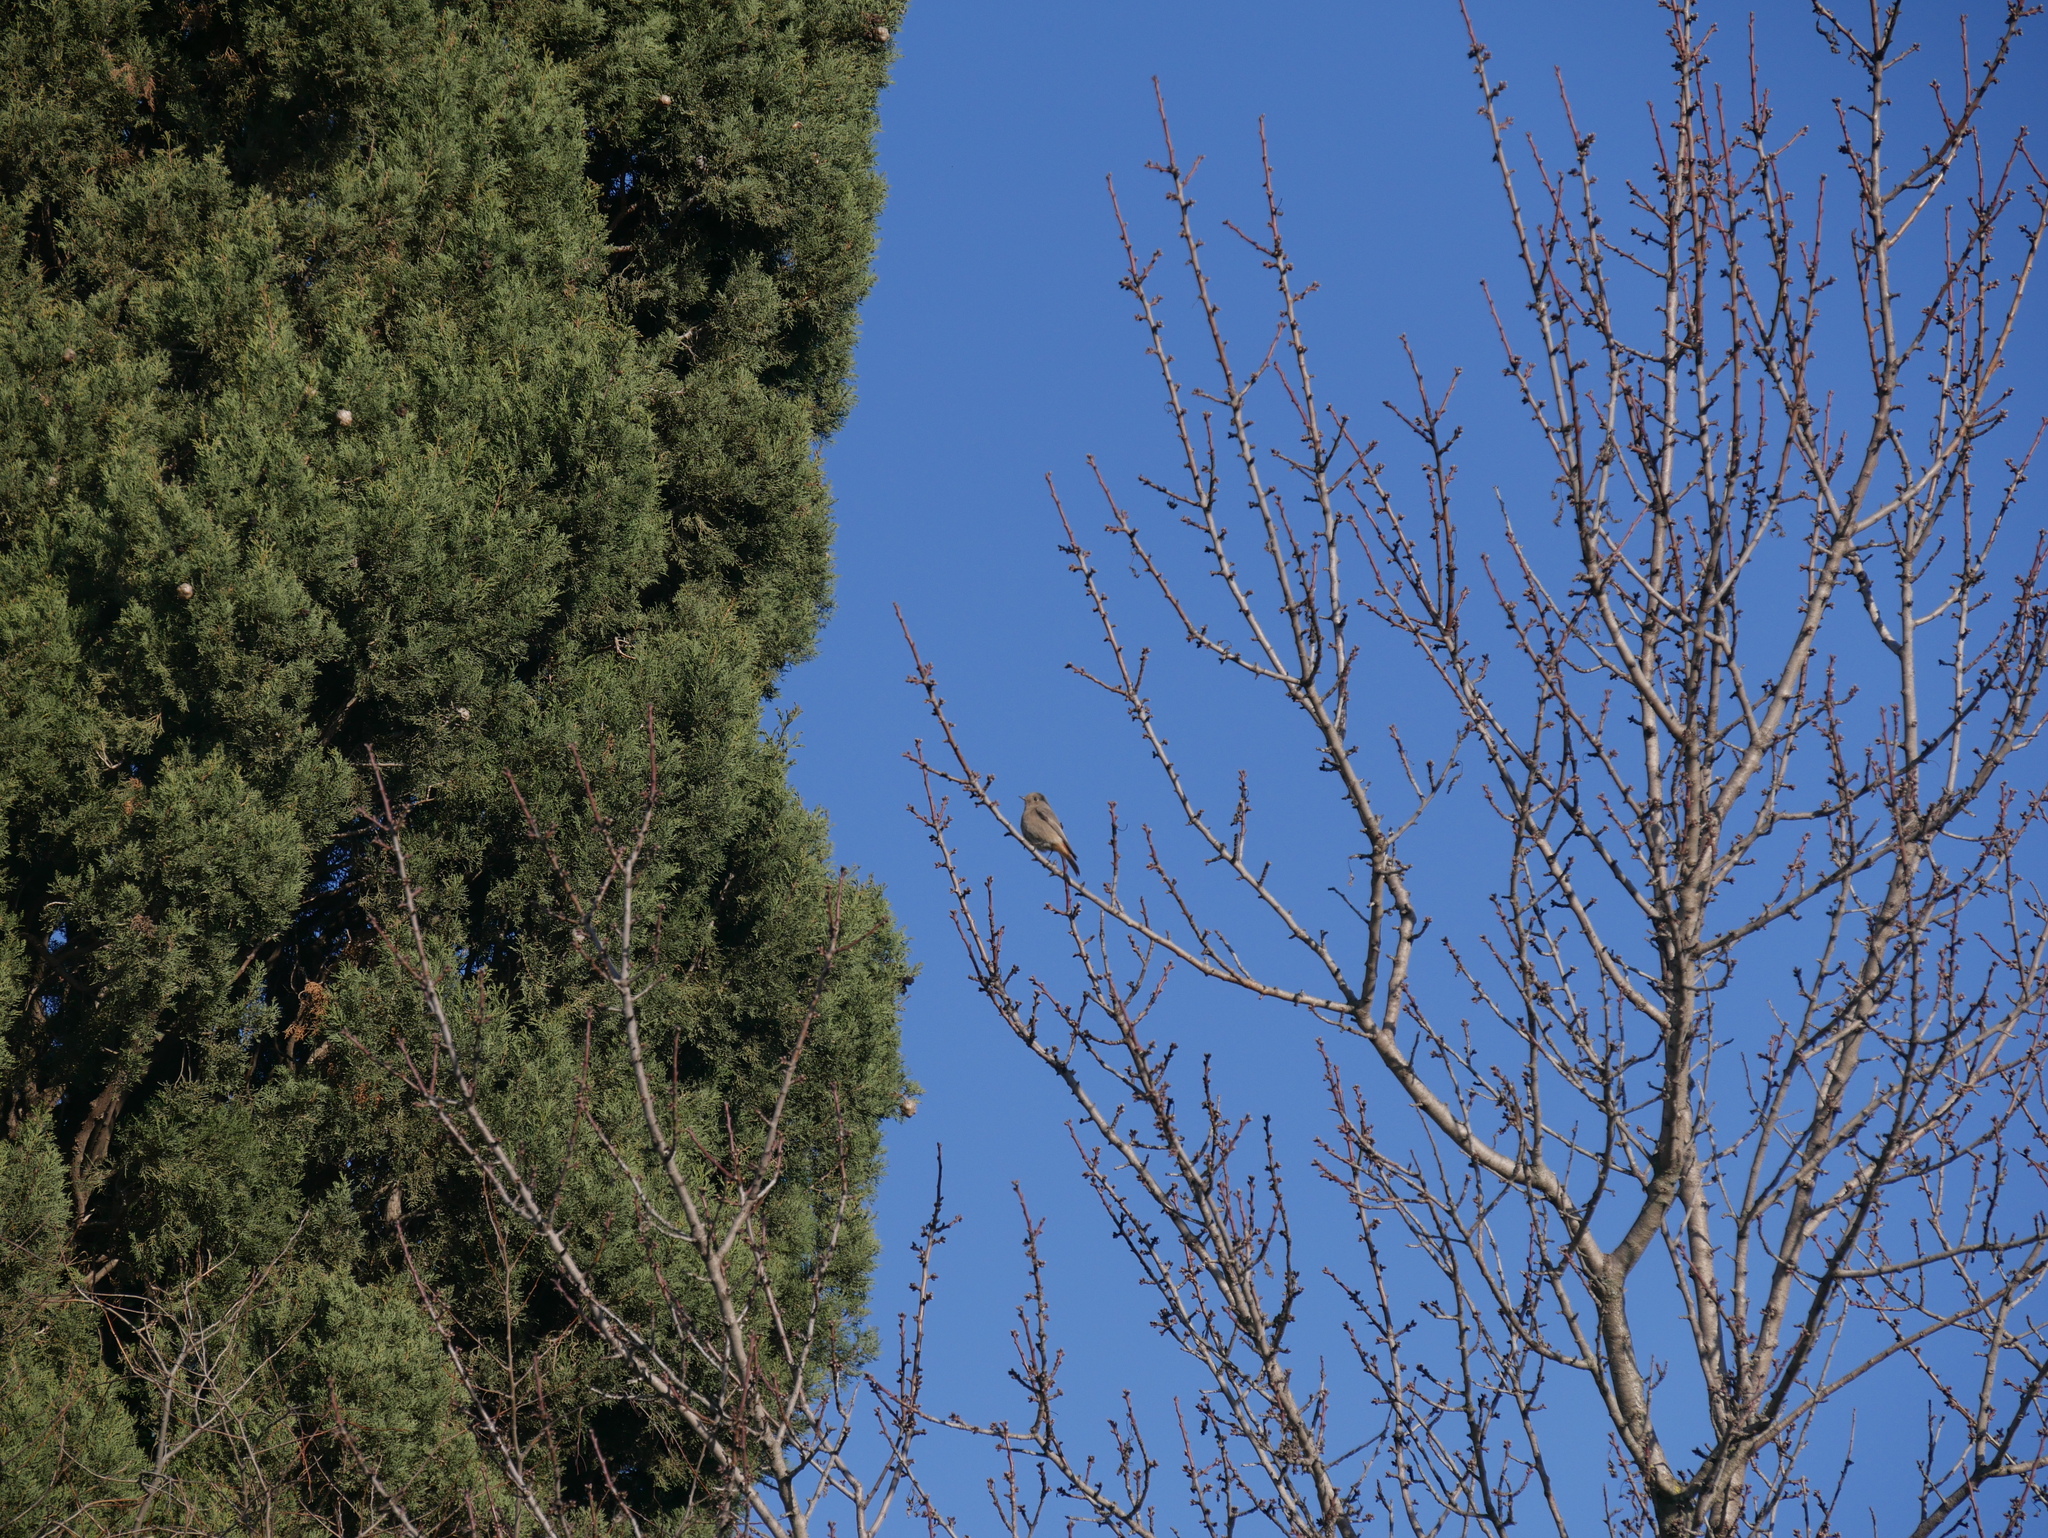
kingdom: Animalia
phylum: Chordata
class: Aves
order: Passeriformes
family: Muscicapidae
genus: Phoenicurus
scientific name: Phoenicurus ochruros
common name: Black redstart
